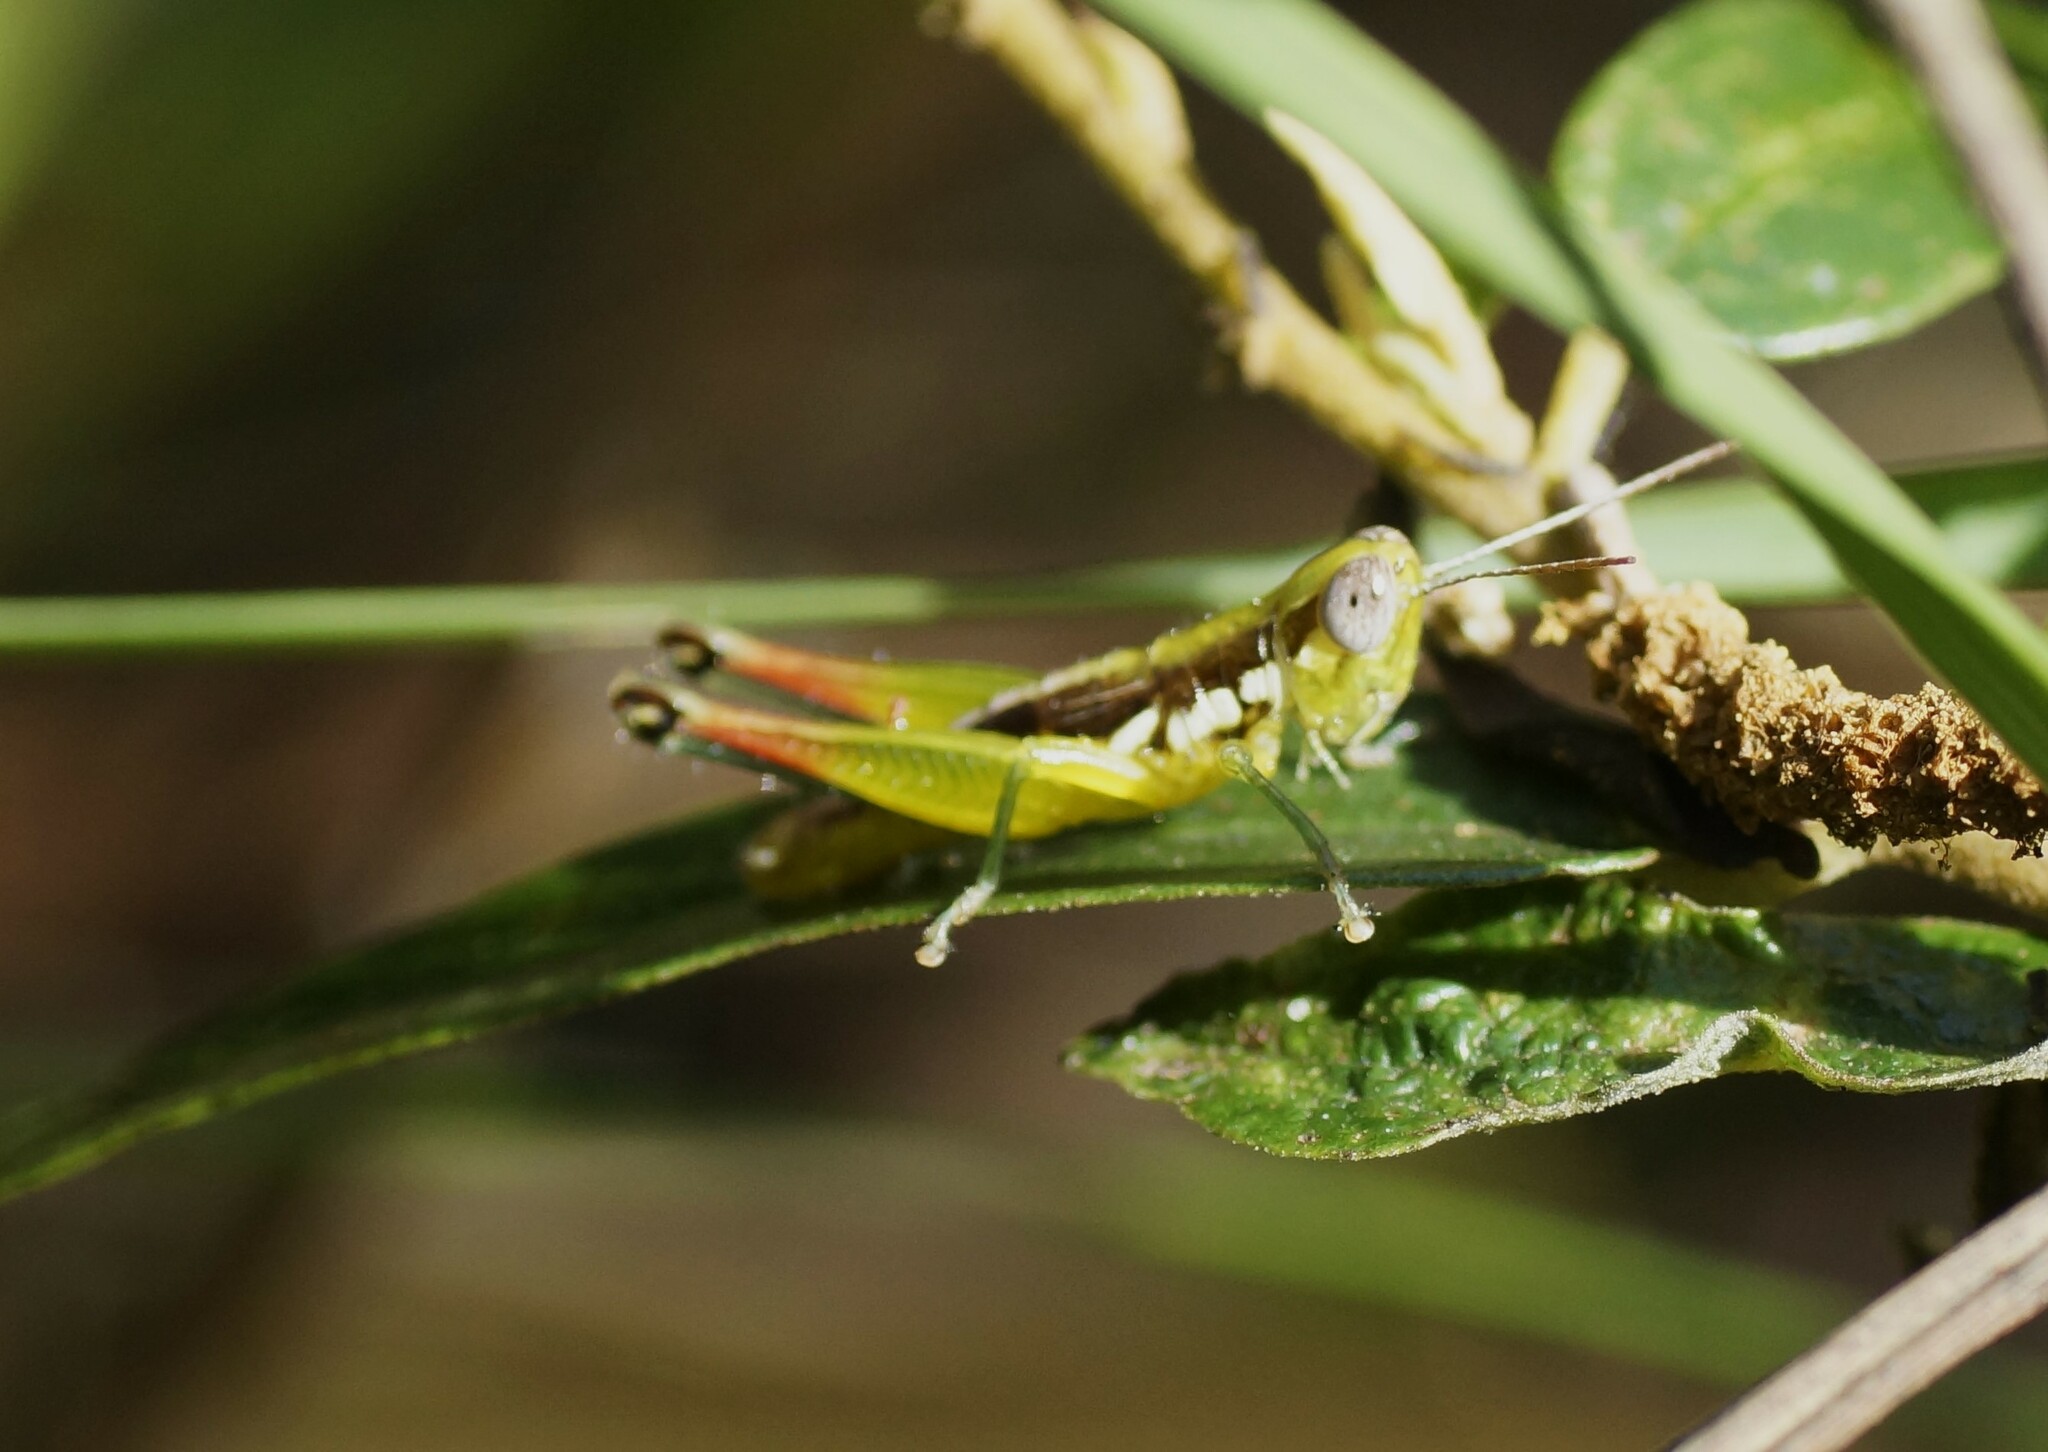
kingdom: Animalia
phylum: Arthropoda
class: Insecta
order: Orthoptera
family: Acrididae
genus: Methiola
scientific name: Methiola picta
